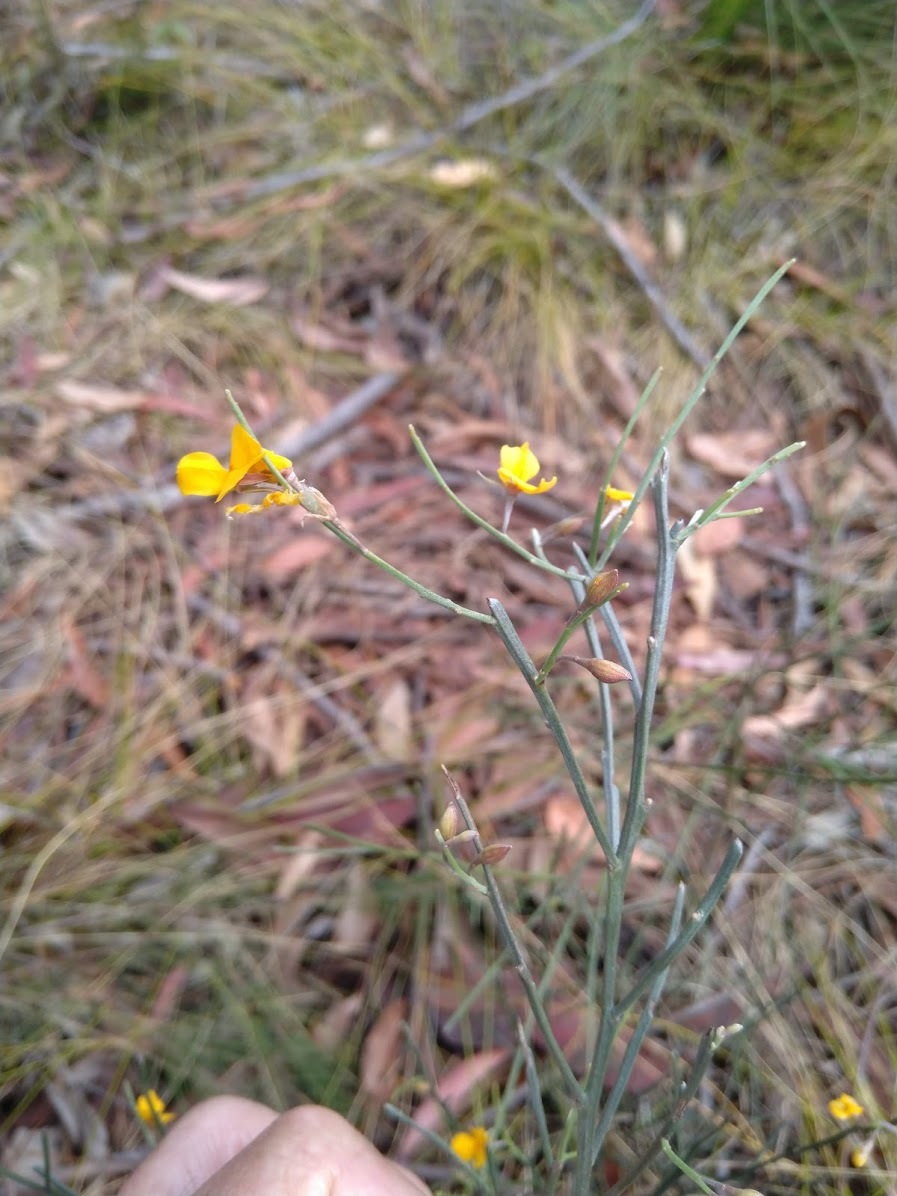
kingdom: Plantae
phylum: Tracheophyta
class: Magnoliopsida
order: Fabales
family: Fabaceae
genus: Jacksonia
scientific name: Jacksonia scoparia
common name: Dogwood
